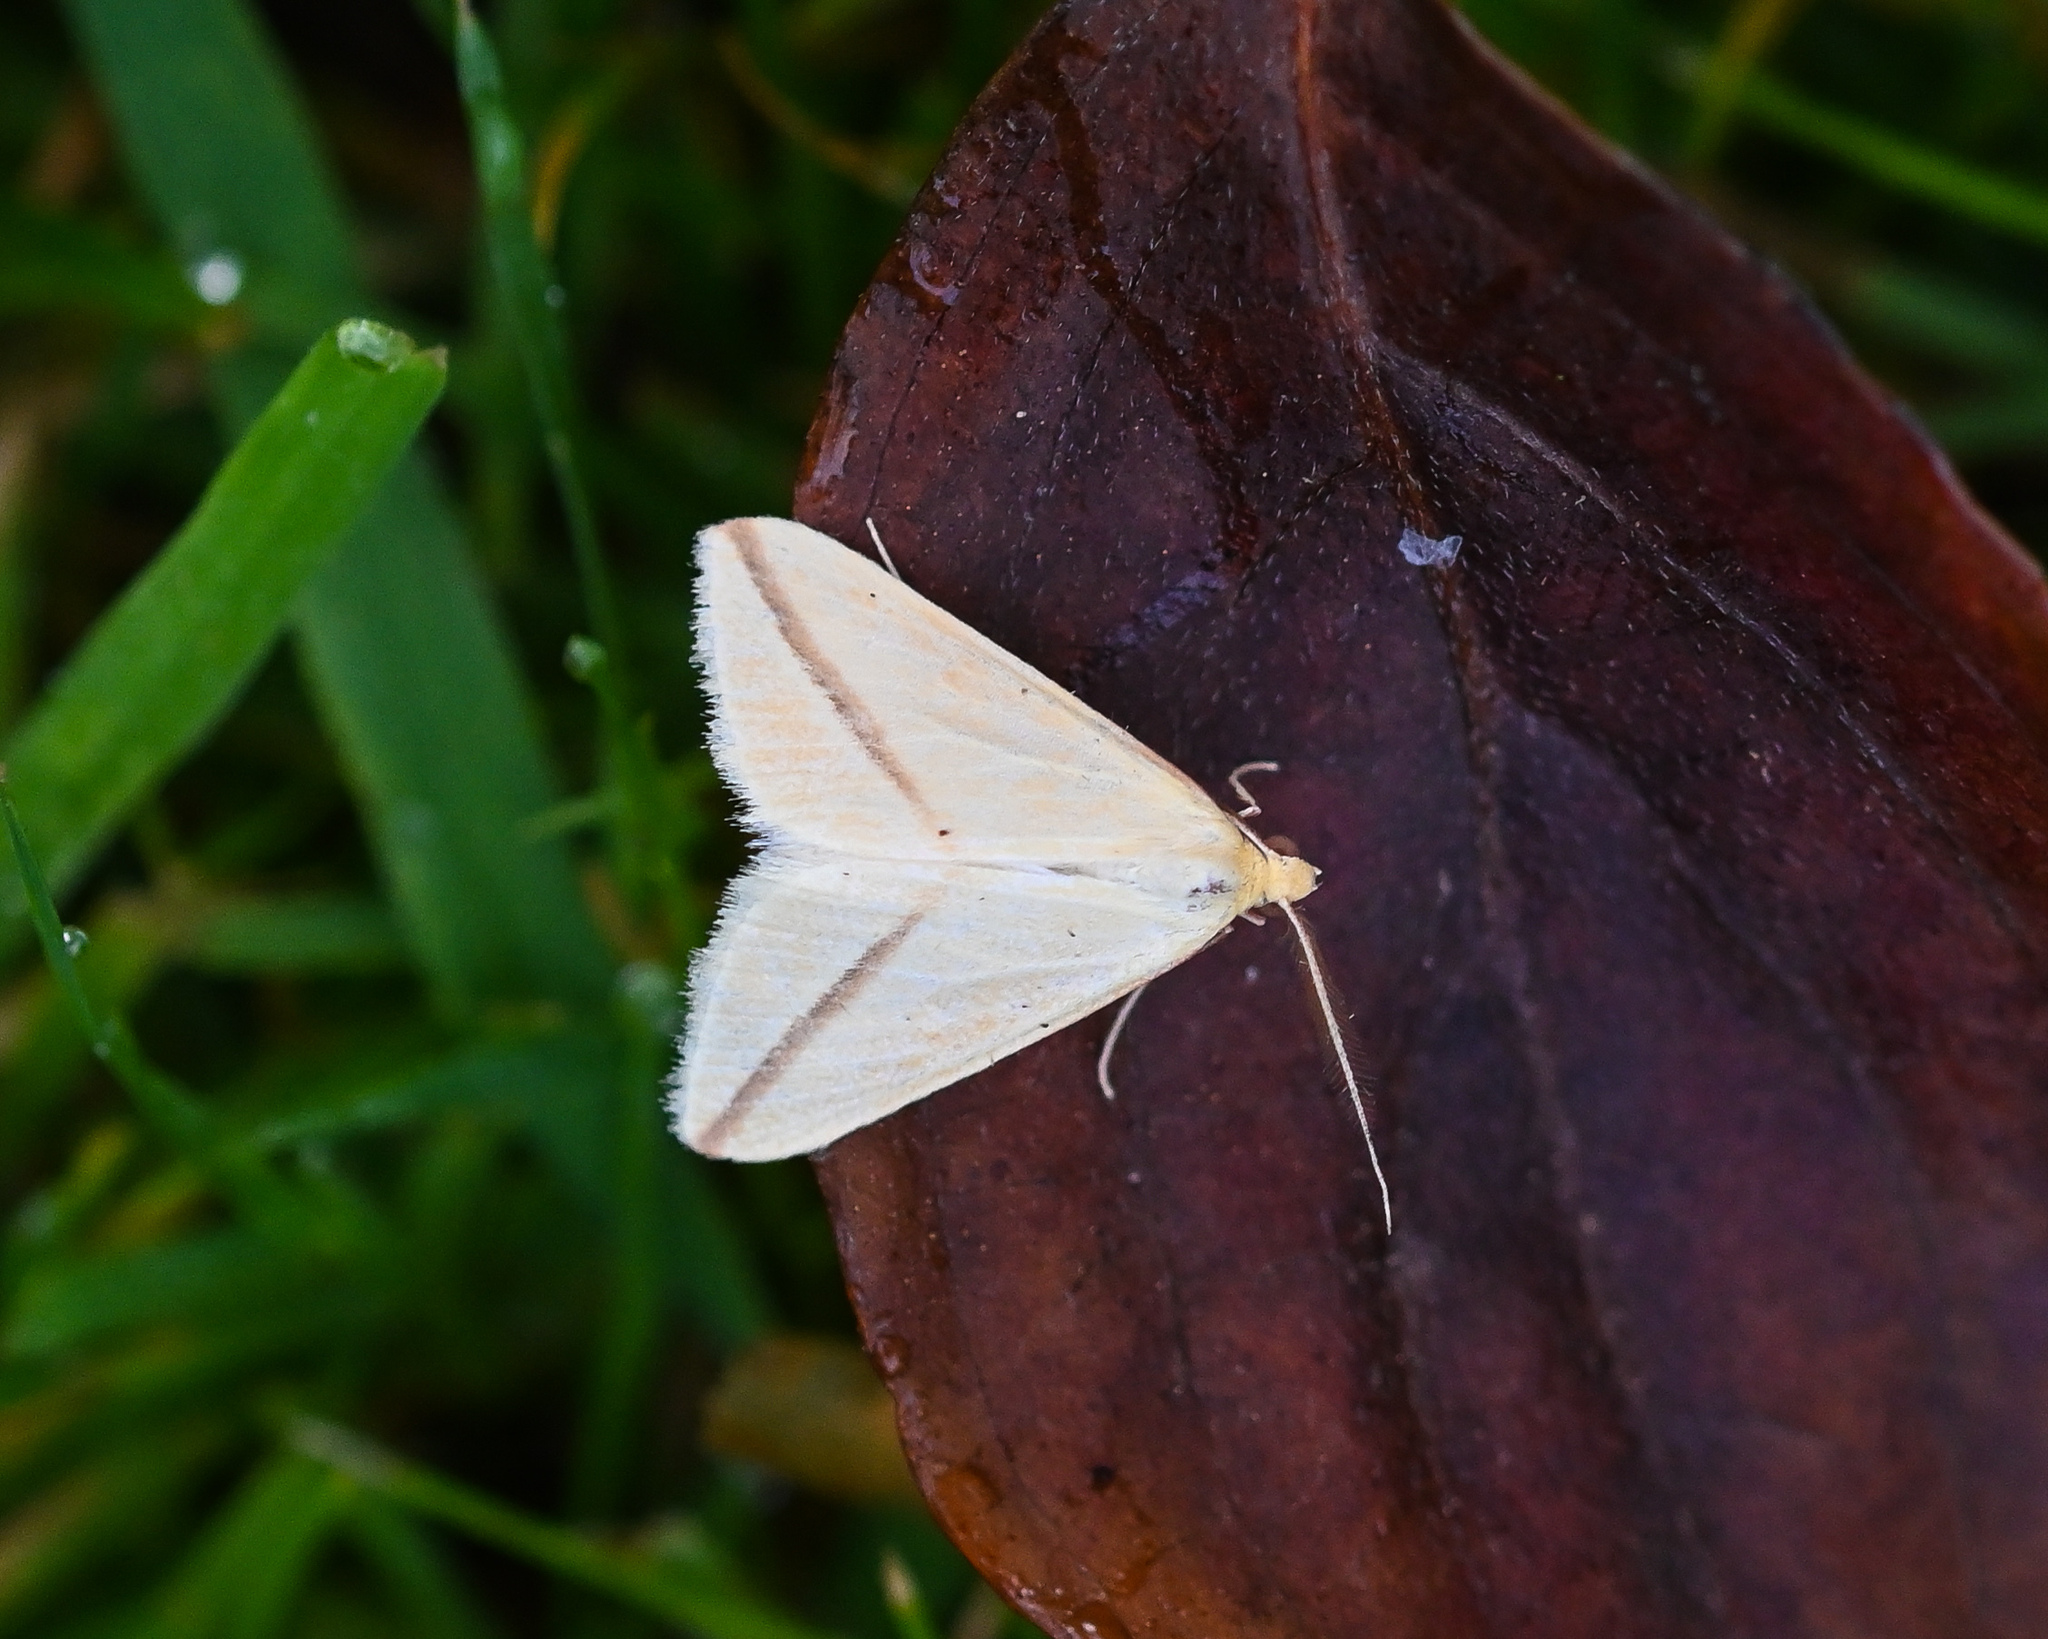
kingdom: Animalia
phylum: Arthropoda
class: Insecta
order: Lepidoptera
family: Geometridae
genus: Rhodometra
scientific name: Rhodometra sacraria
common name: Vestal
